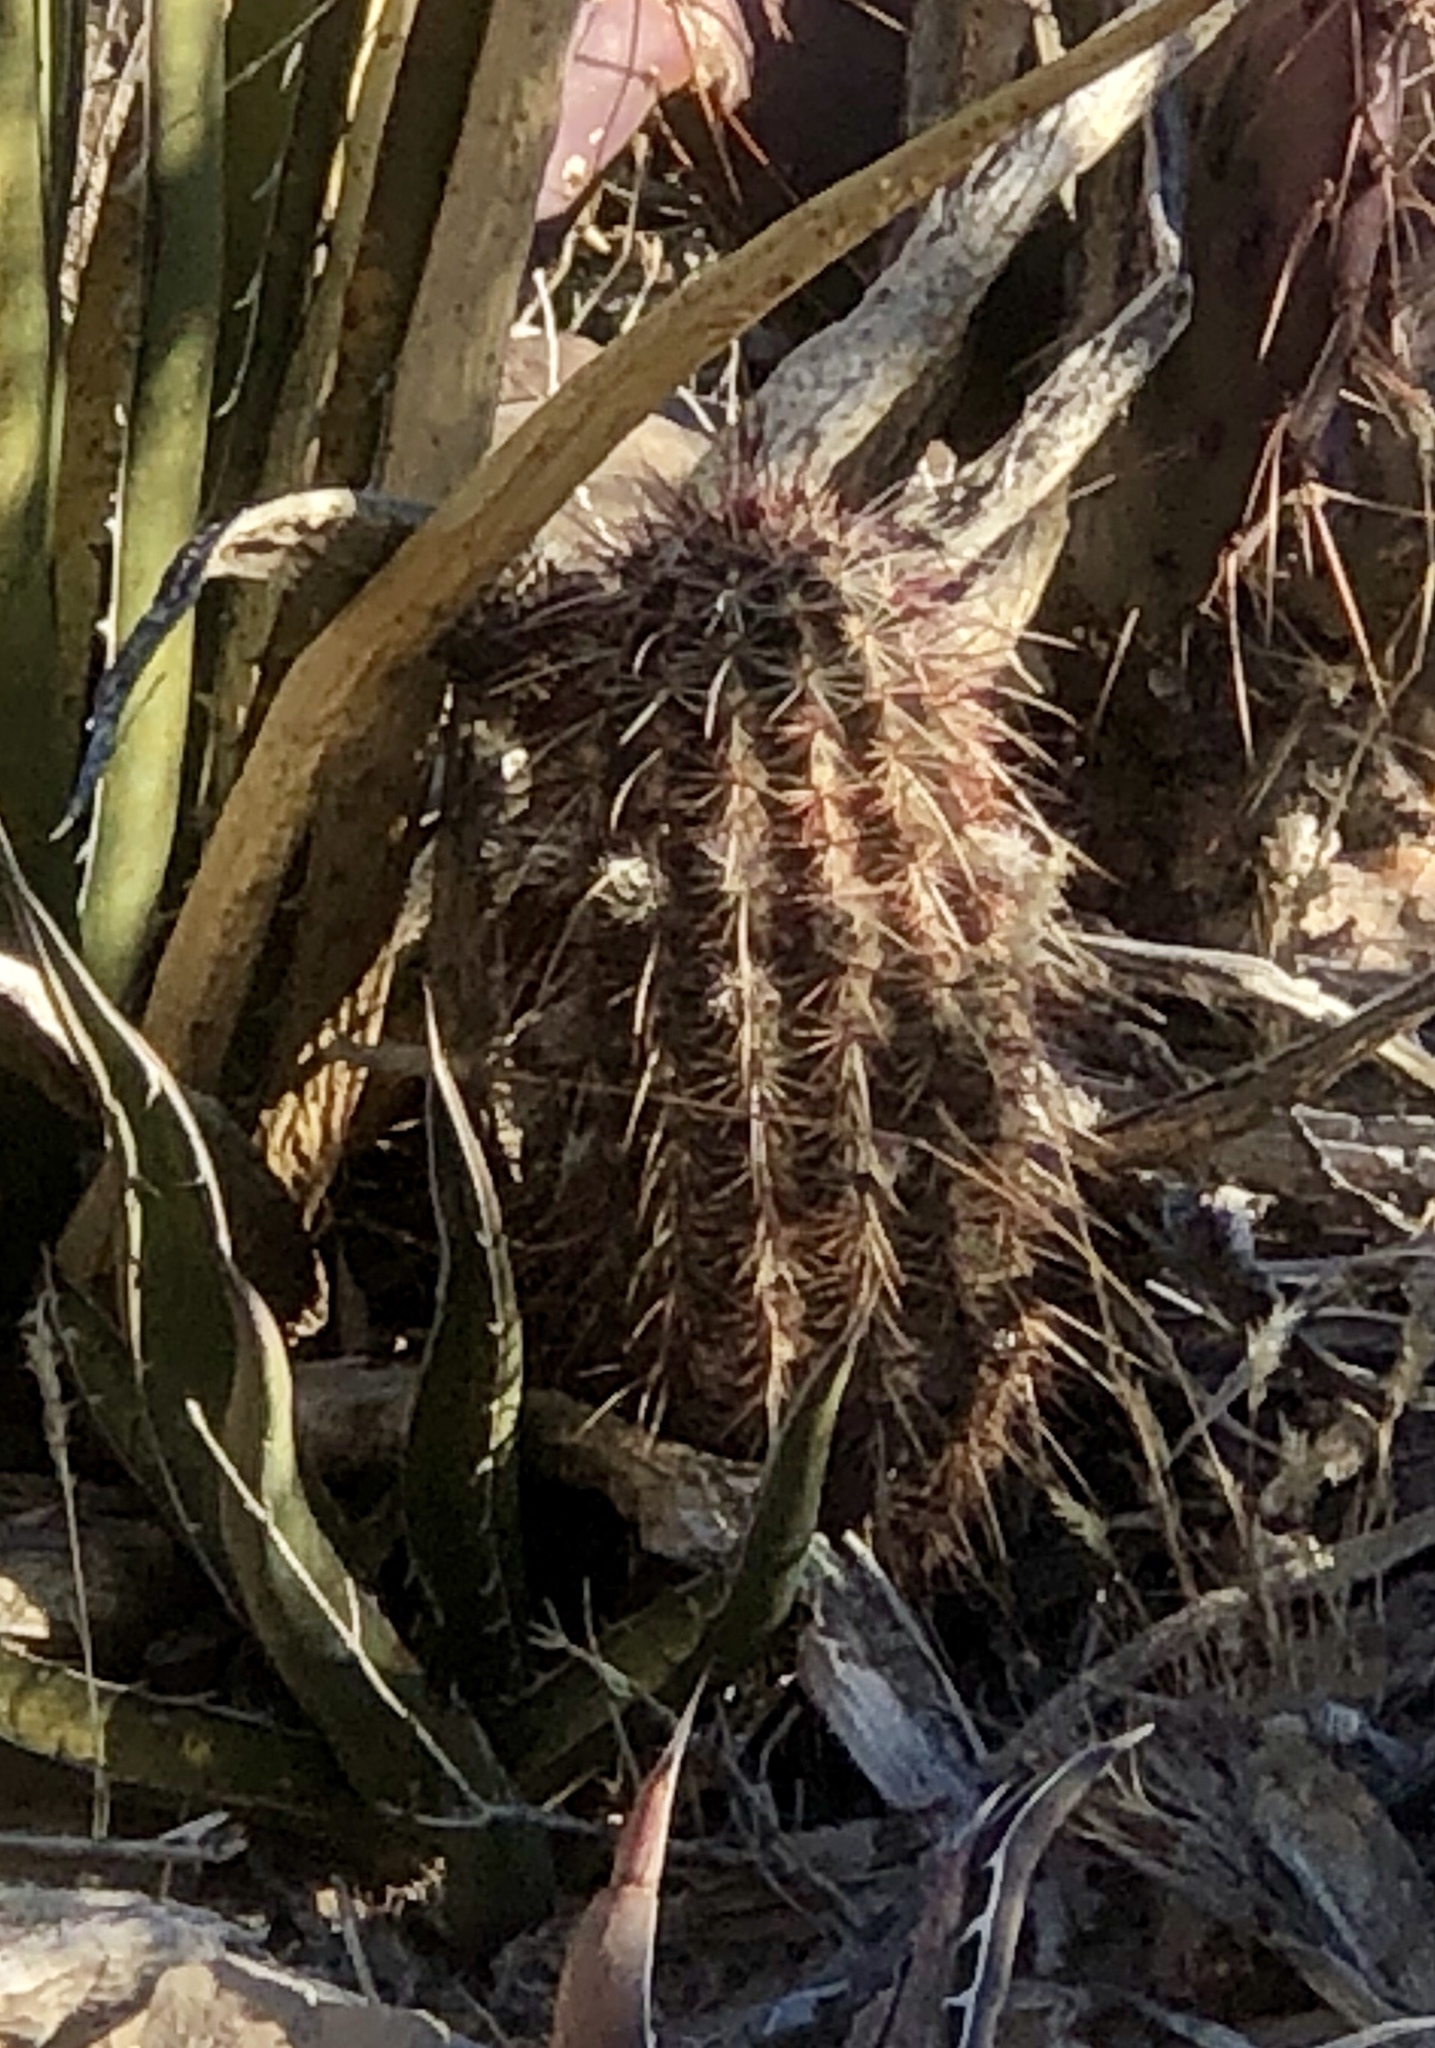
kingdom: Plantae
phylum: Tracheophyta
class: Magnoliopsida
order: Caryophyllales
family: Cactaceae
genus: Echinocereus
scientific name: Echinocereus viridiflorus
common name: Nylon hedgehog cactus
